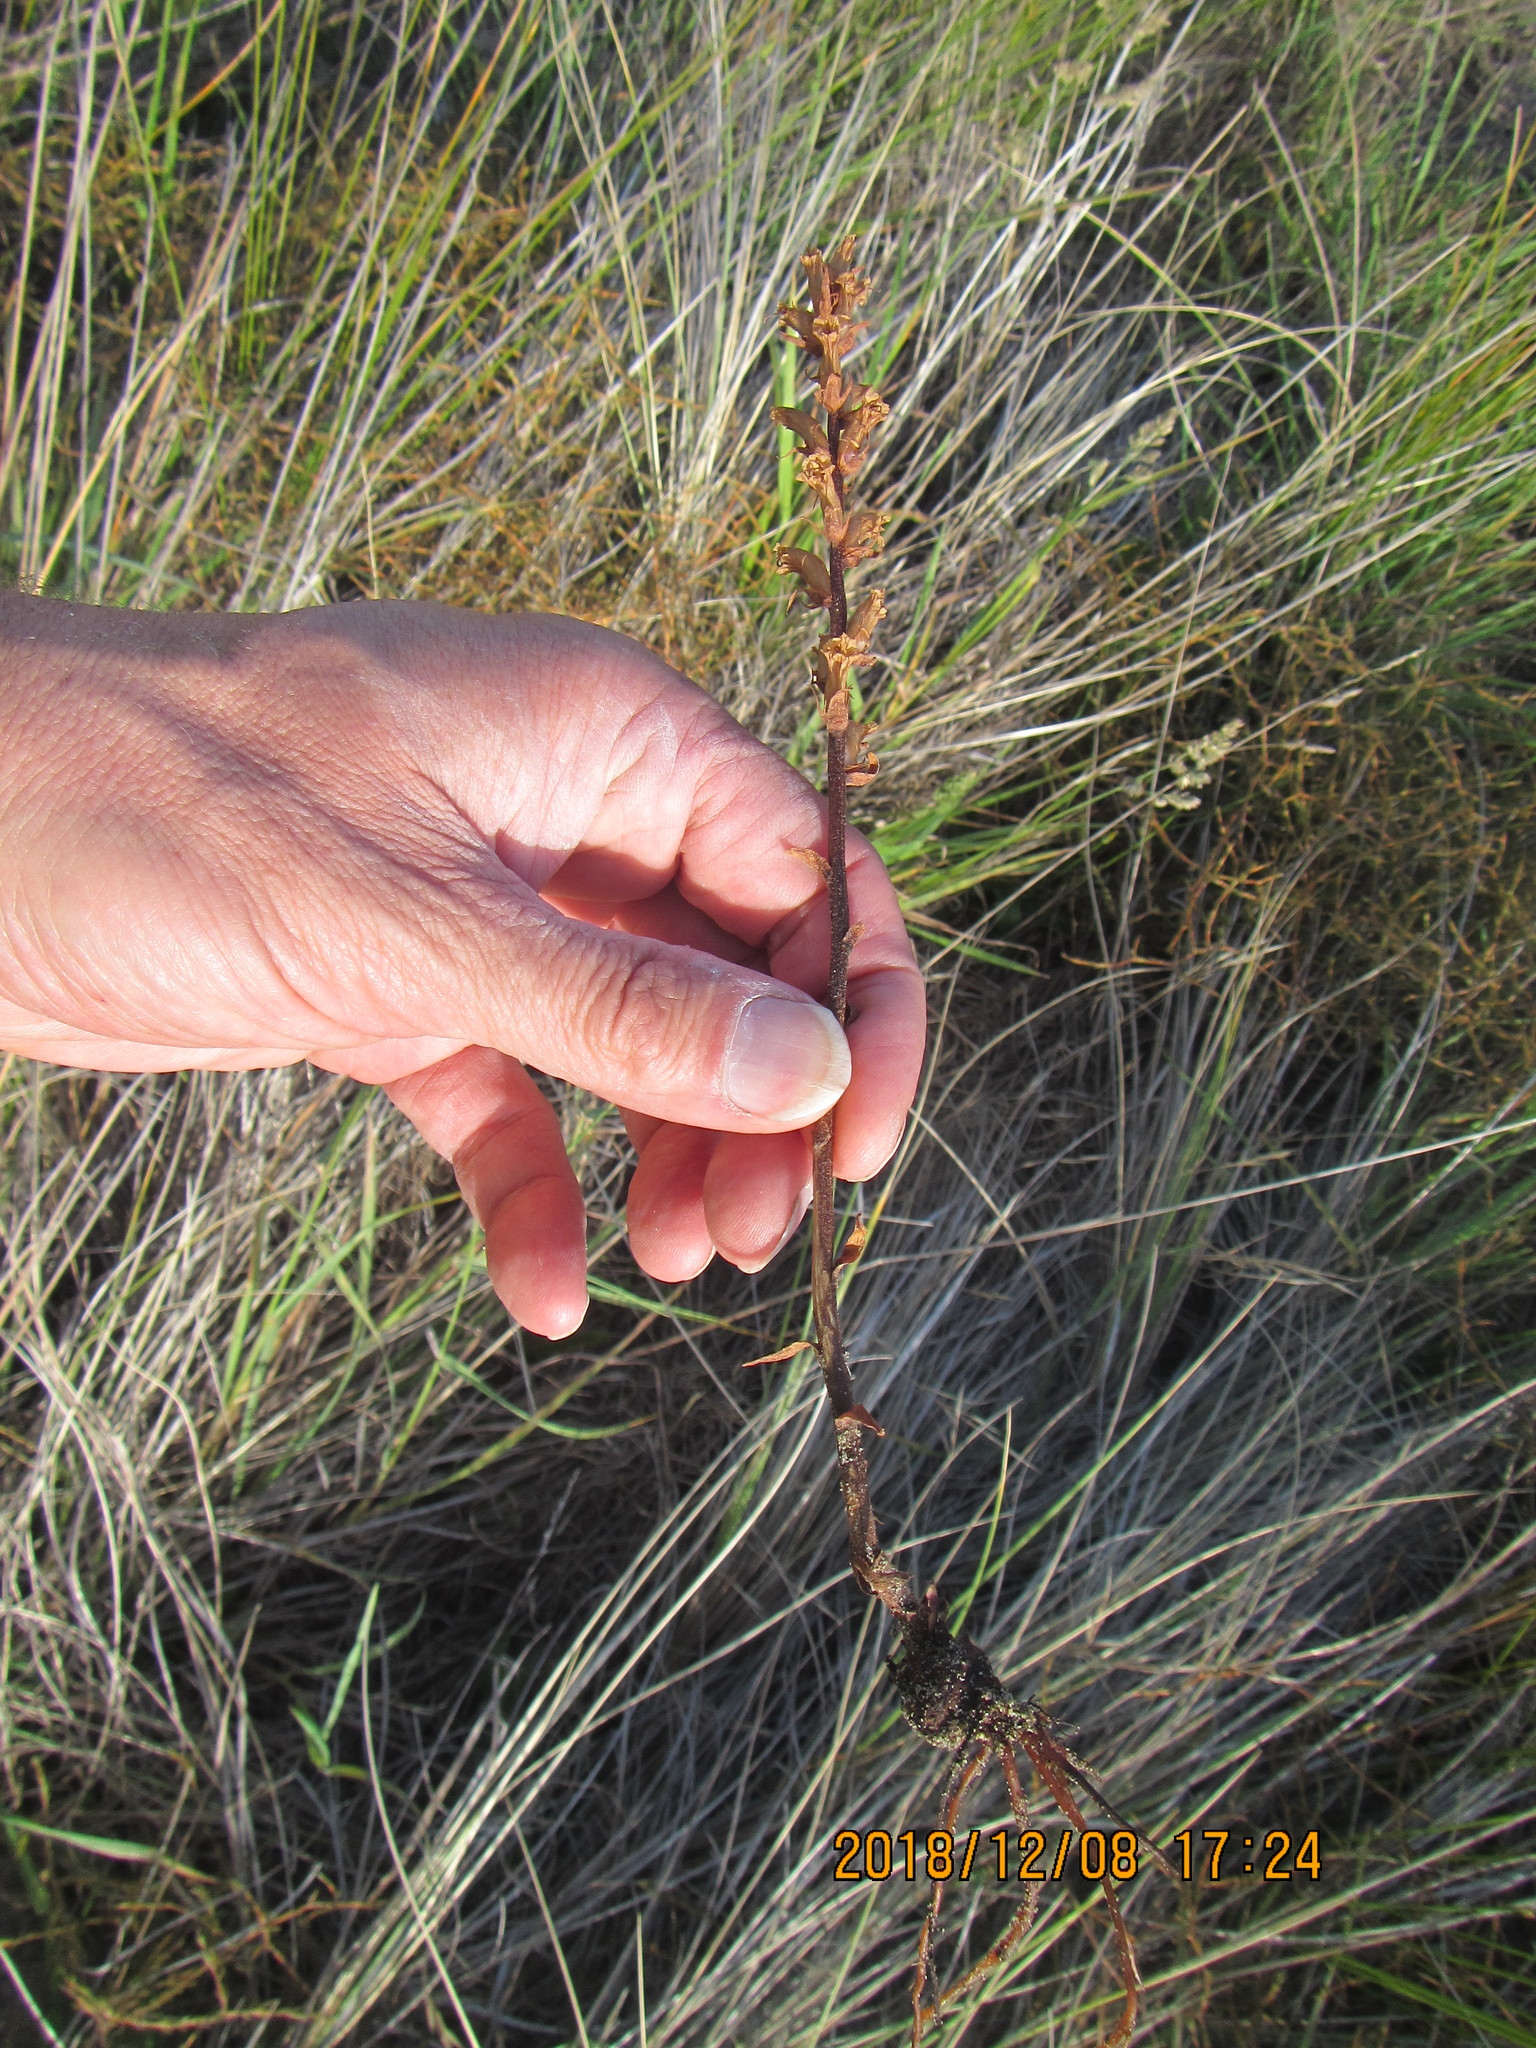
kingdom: Plantae
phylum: Tracheophyta
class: Magnoliopsida
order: Lamiales
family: Orobanchaceae
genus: Orobanche
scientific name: Orobanche minor
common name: Common broomrape
